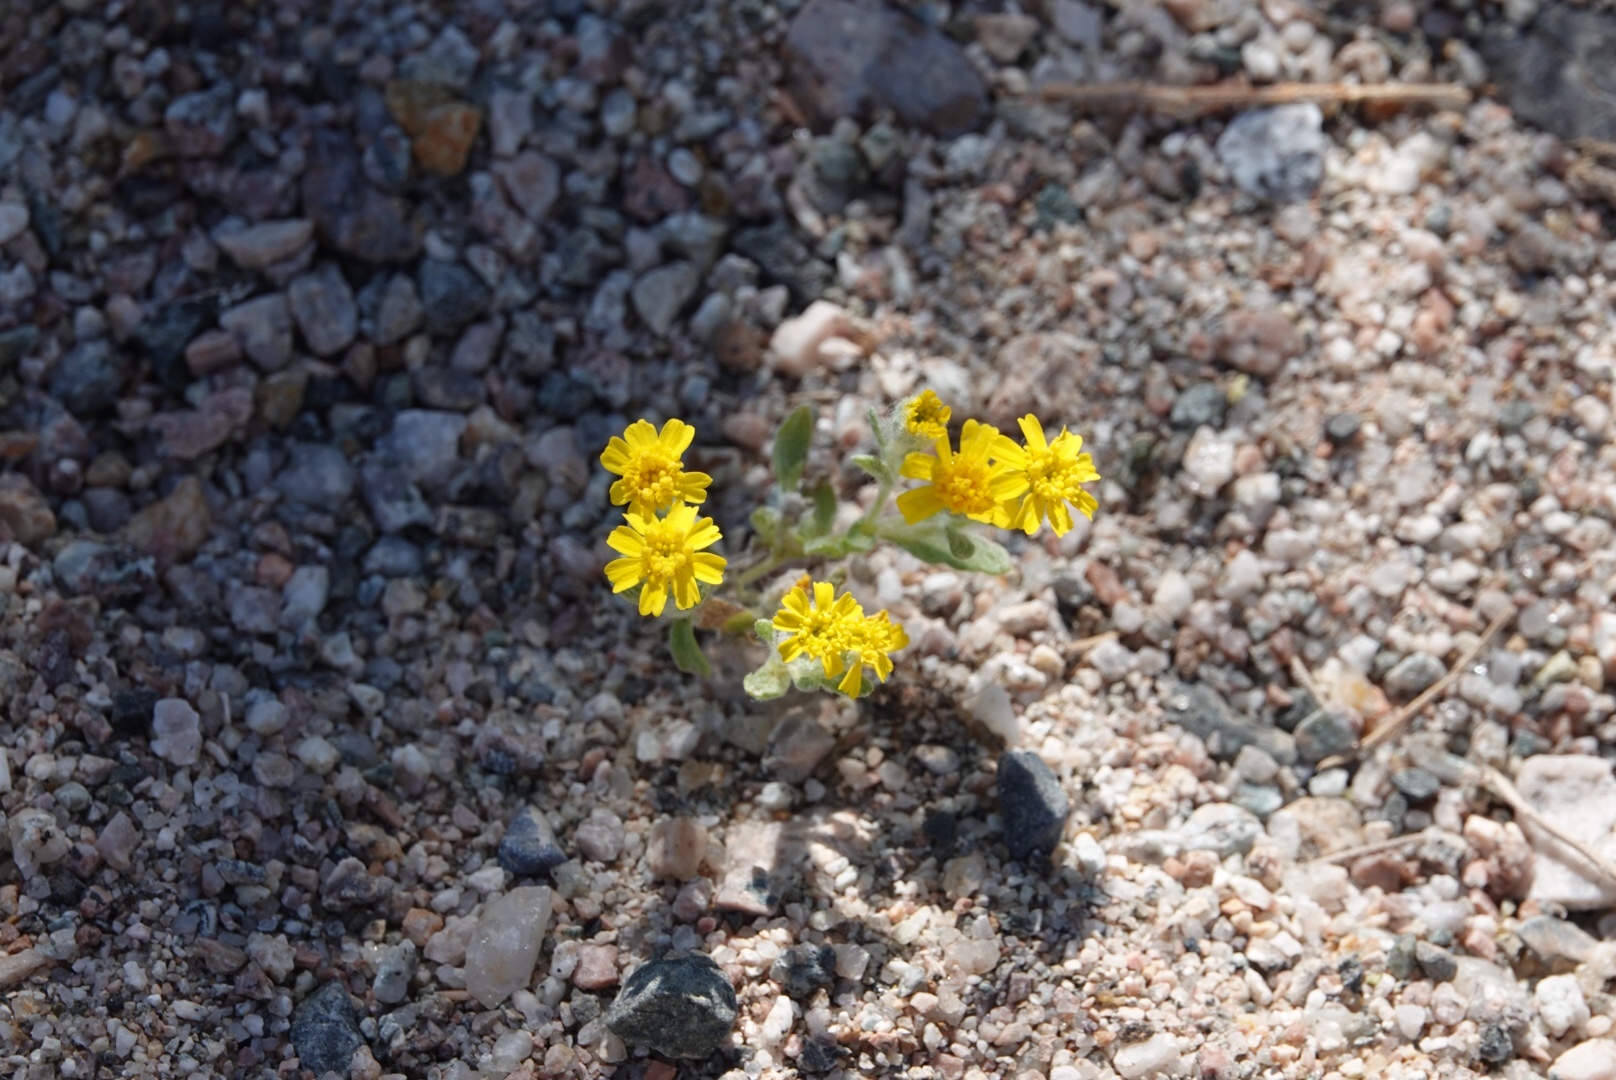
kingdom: Plantae
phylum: Tracheophyta
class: Magnoliopsida
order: Asterales
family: Asteraceae
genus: Eriophyllum
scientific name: Eriophyllum wallacei
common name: Wallace's woolly daisy
